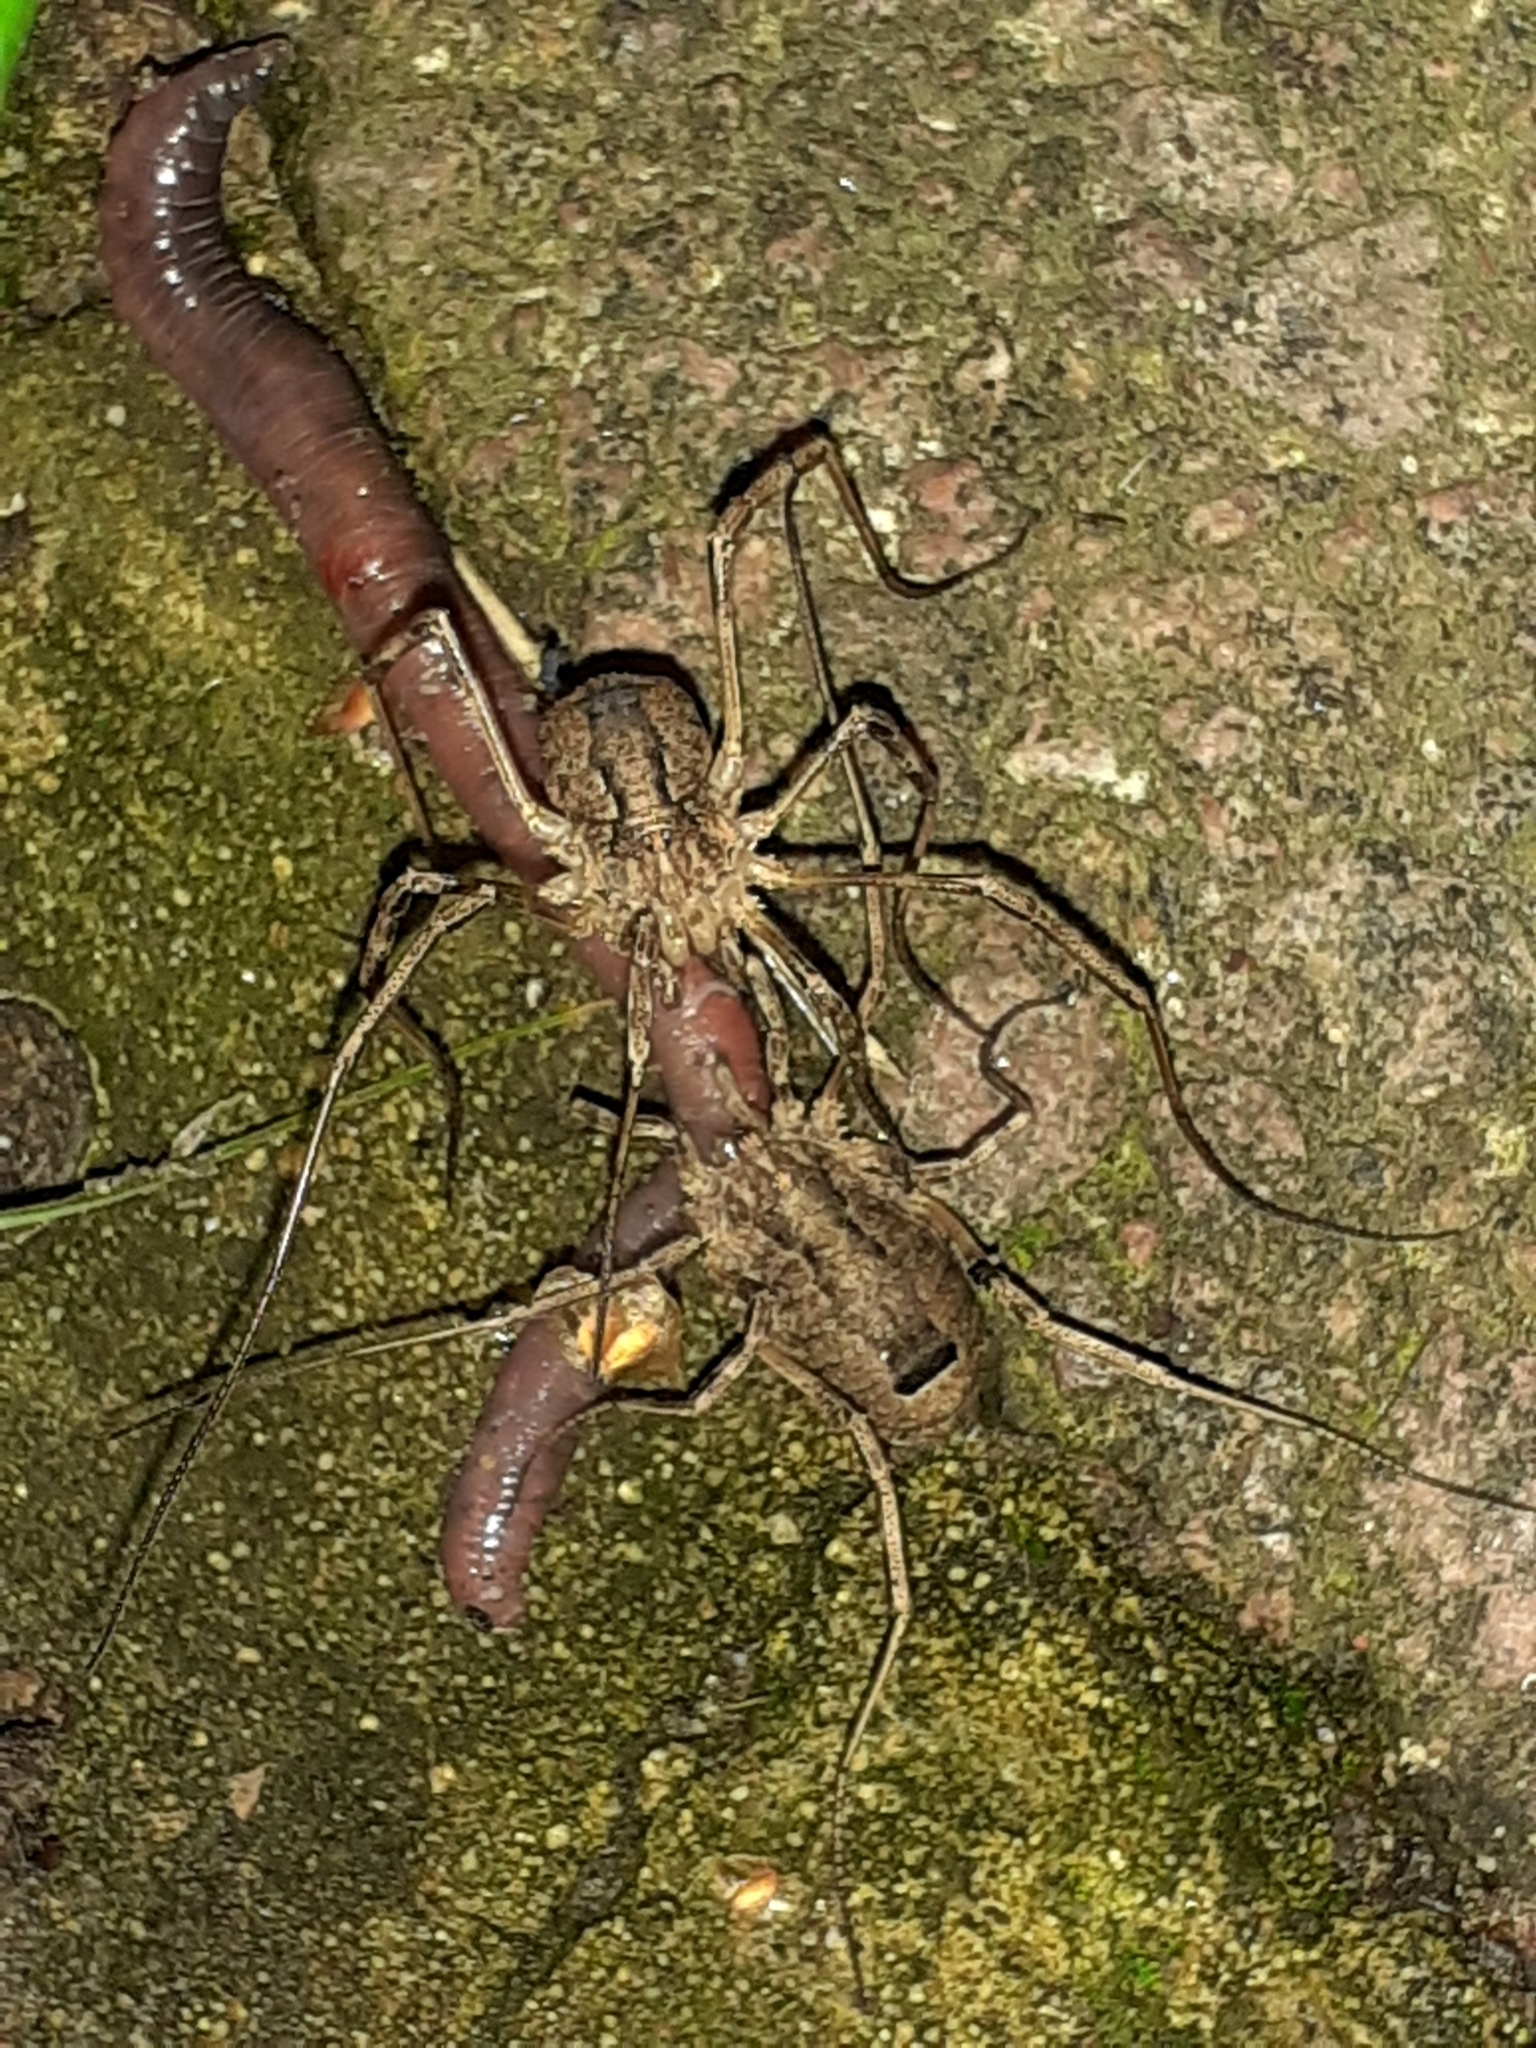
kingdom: Animalia
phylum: Arthropoda
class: Arachnida
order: Opiliones
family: Phalangiidae
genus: Odiellus
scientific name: Odiellus spinosus
